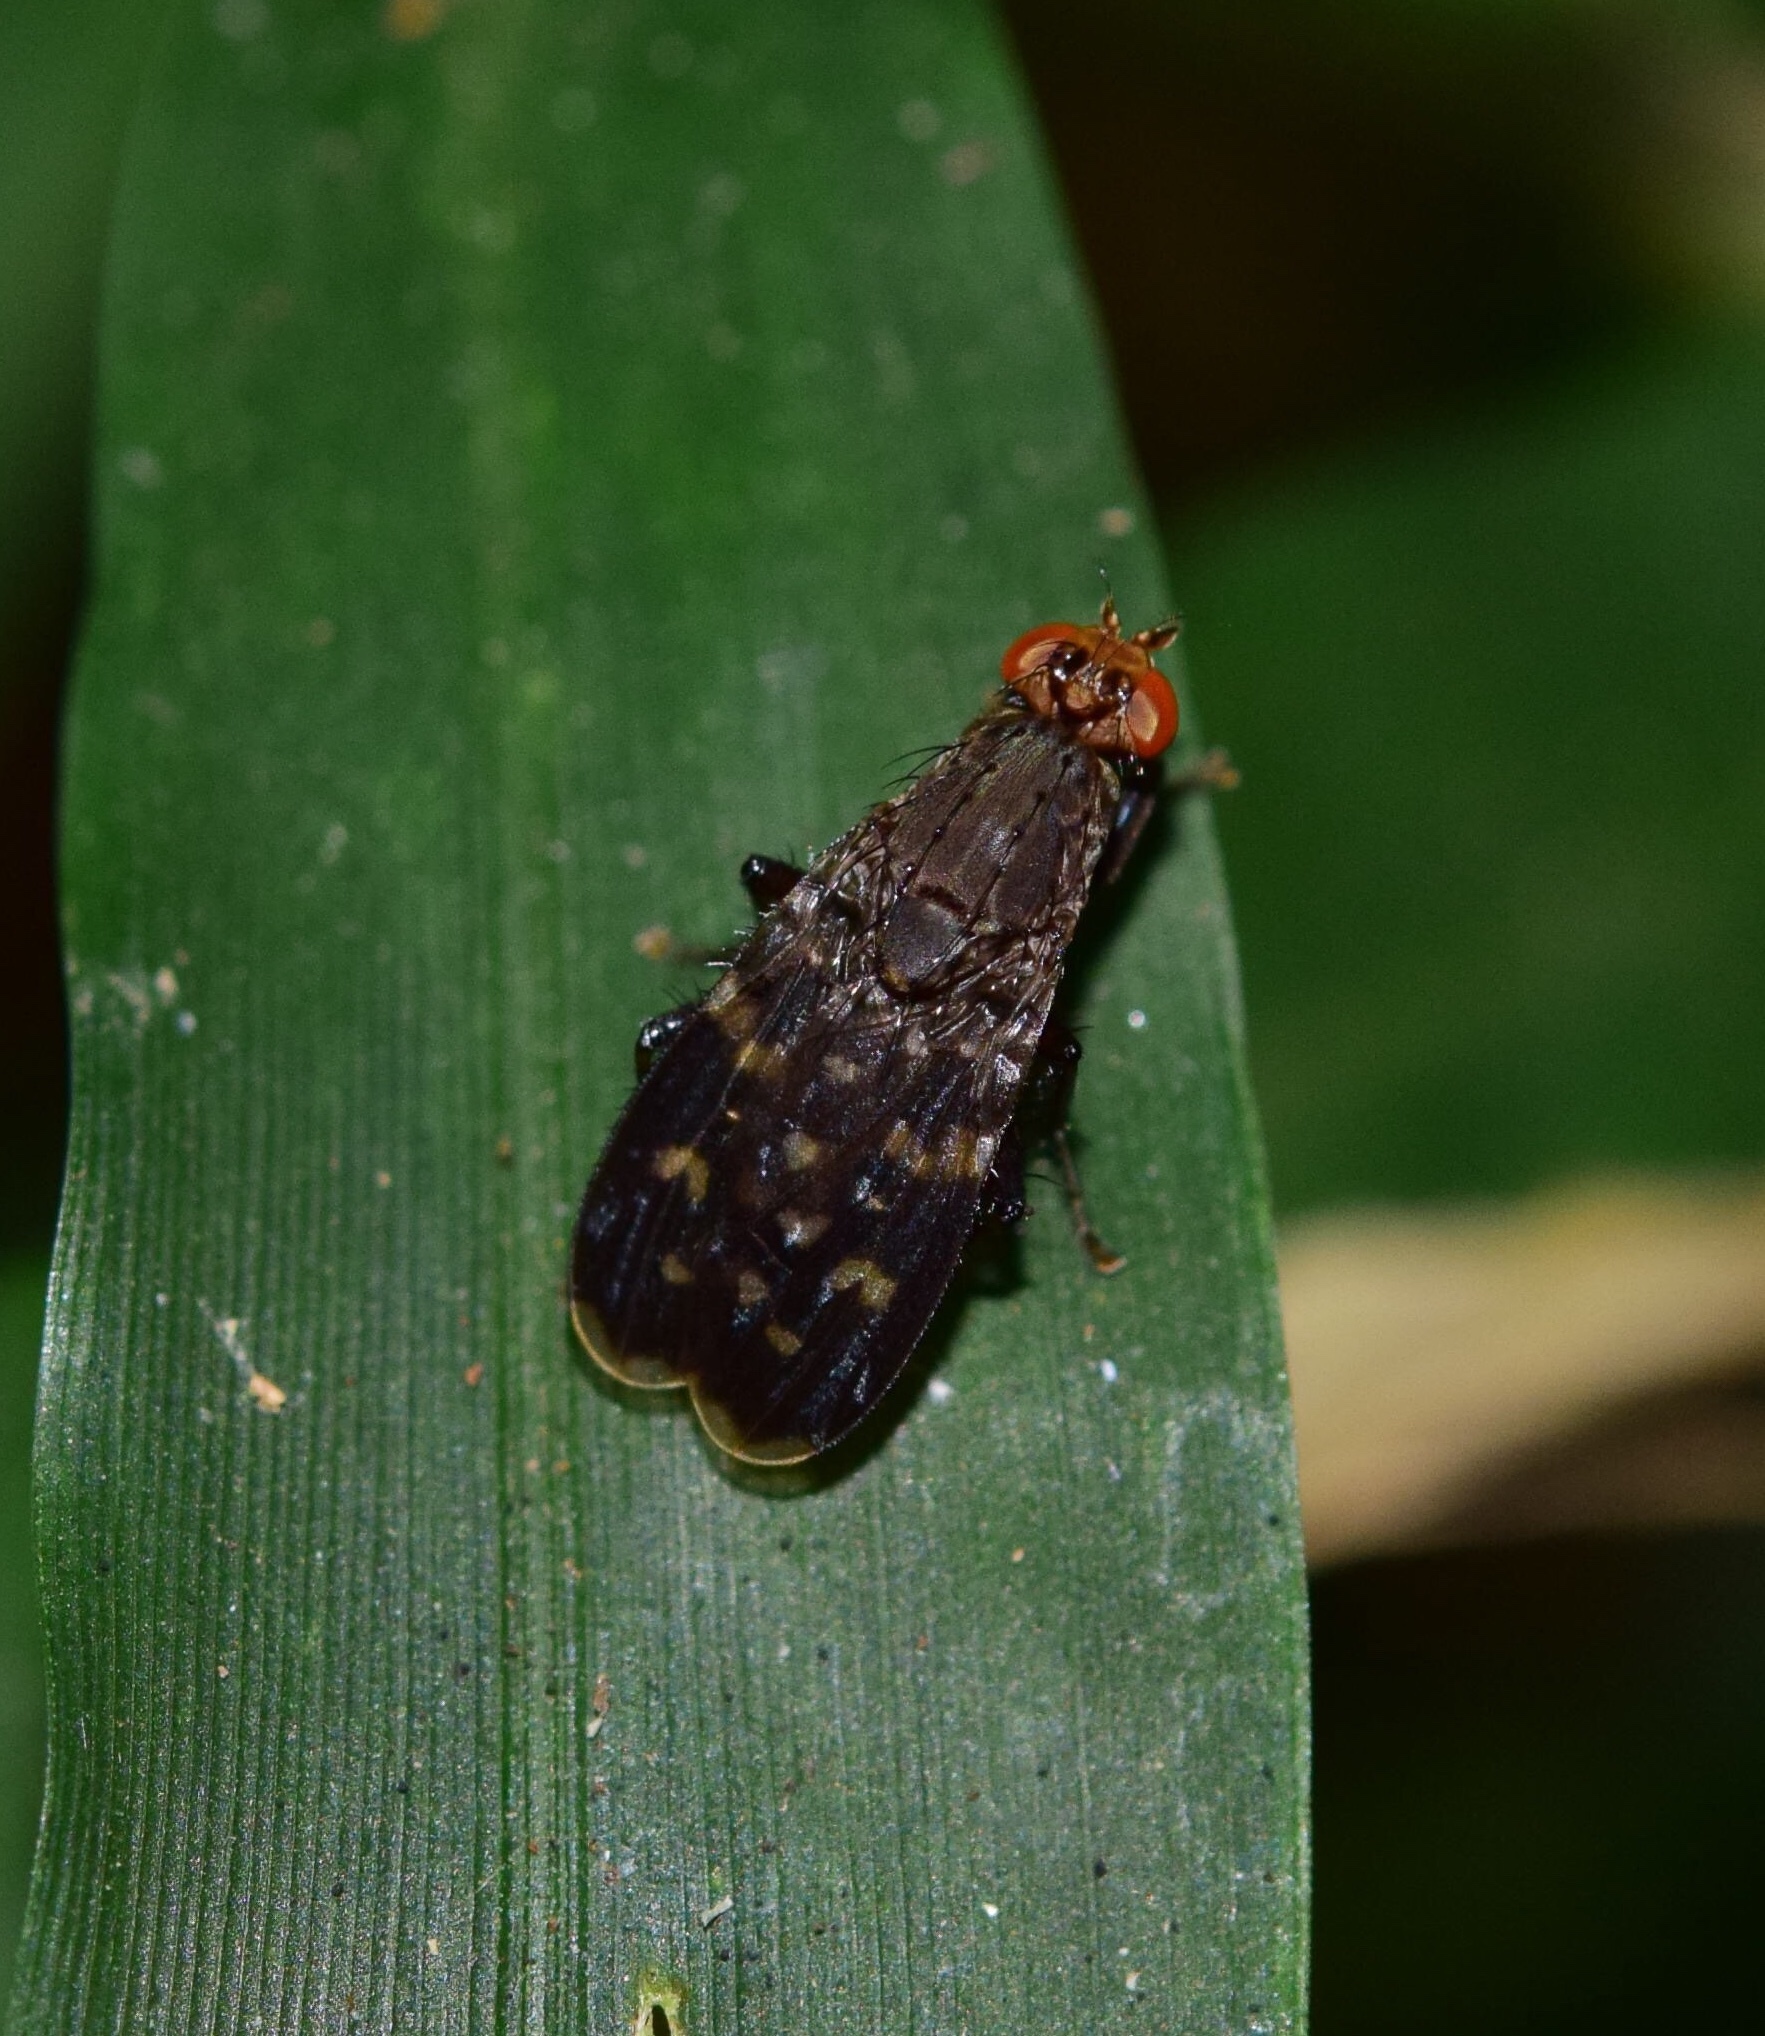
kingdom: Animalia
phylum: Arthropoda
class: Insecta
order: Diptera
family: Heleomyzidae
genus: Suillia
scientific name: Suillia picta
